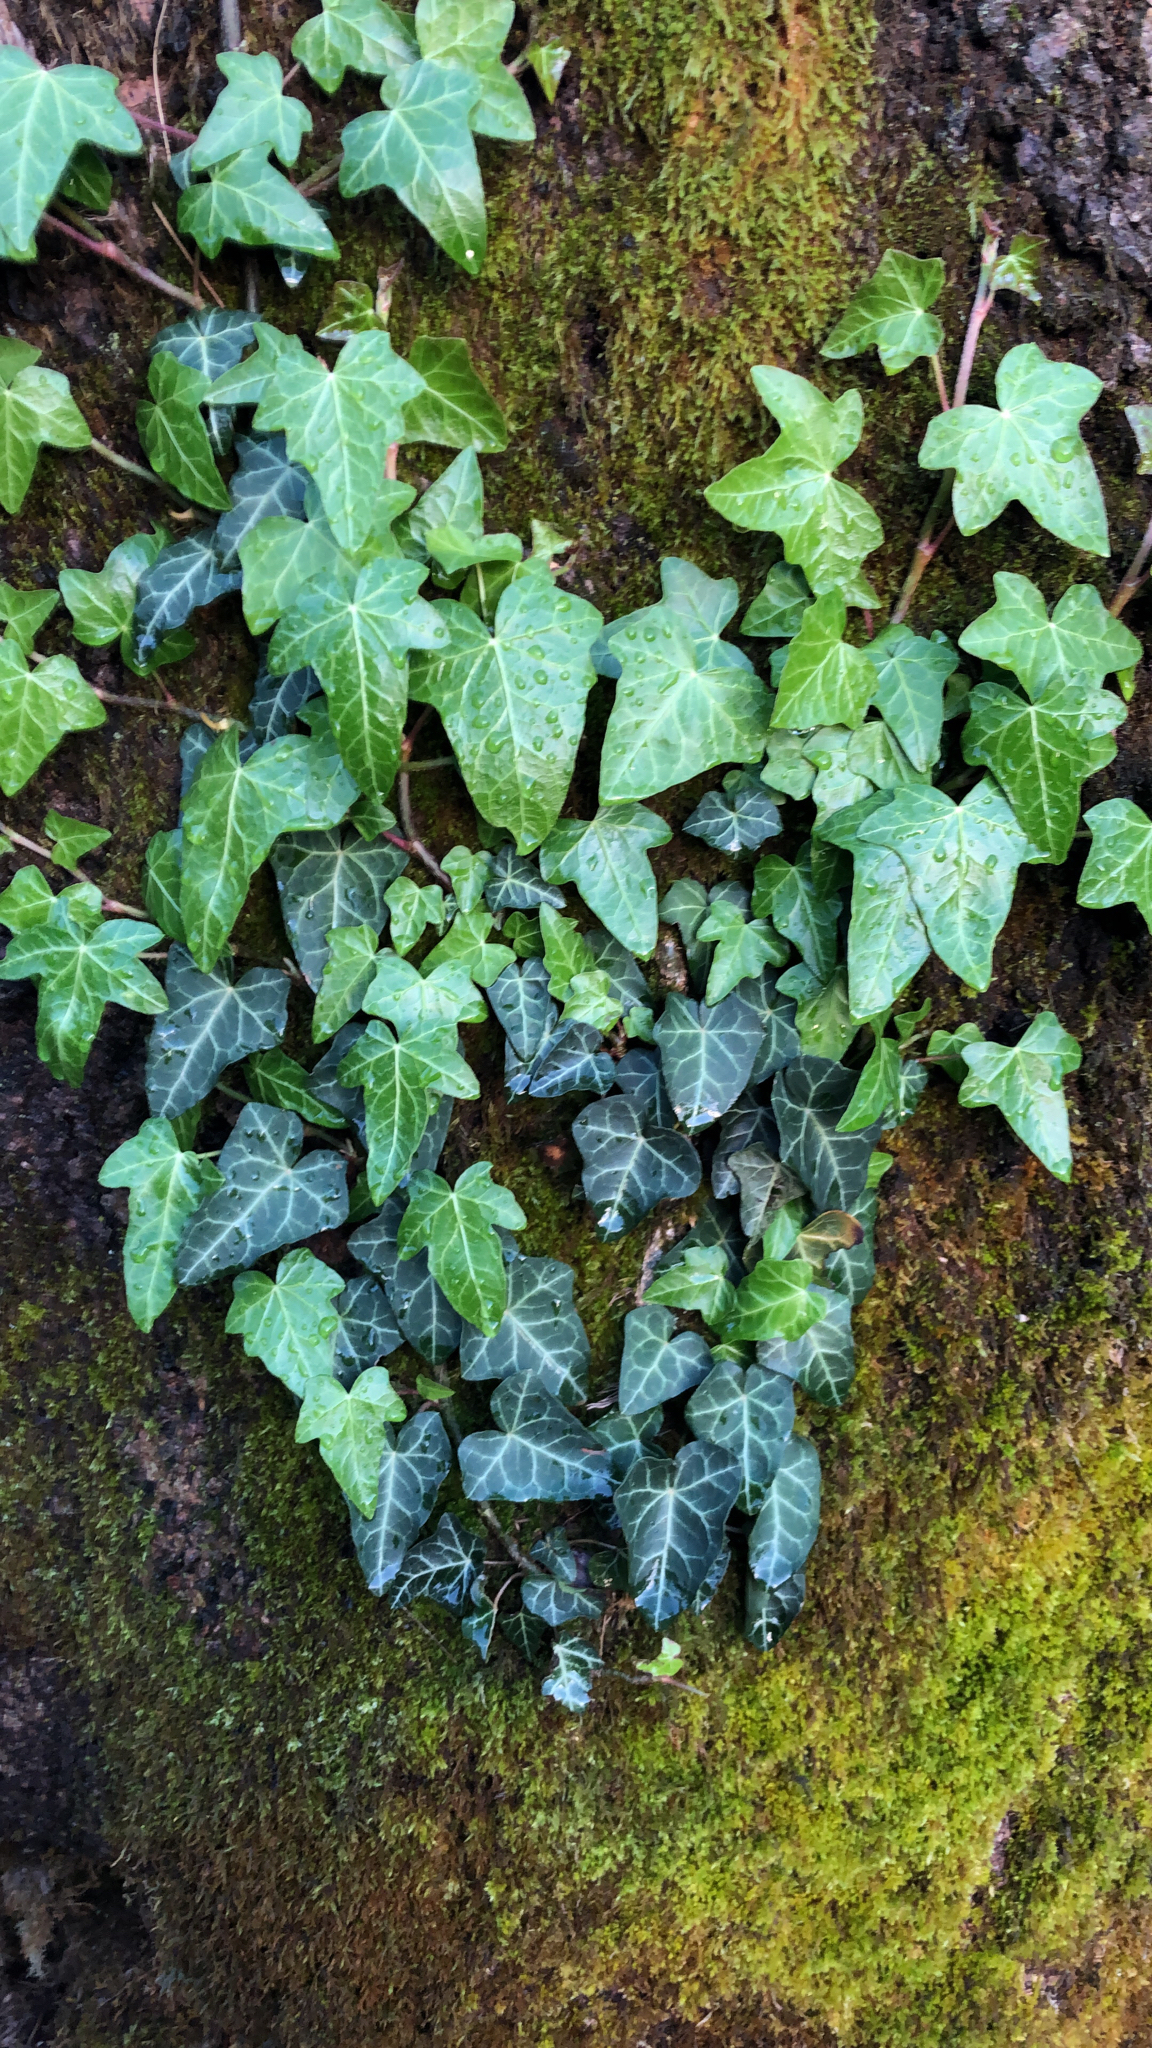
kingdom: Plantae
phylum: Tracheophyta
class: Magnoliopsida
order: Apiales
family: Araliaceae
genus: Hedera
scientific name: Hedera helix
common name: Ivy
